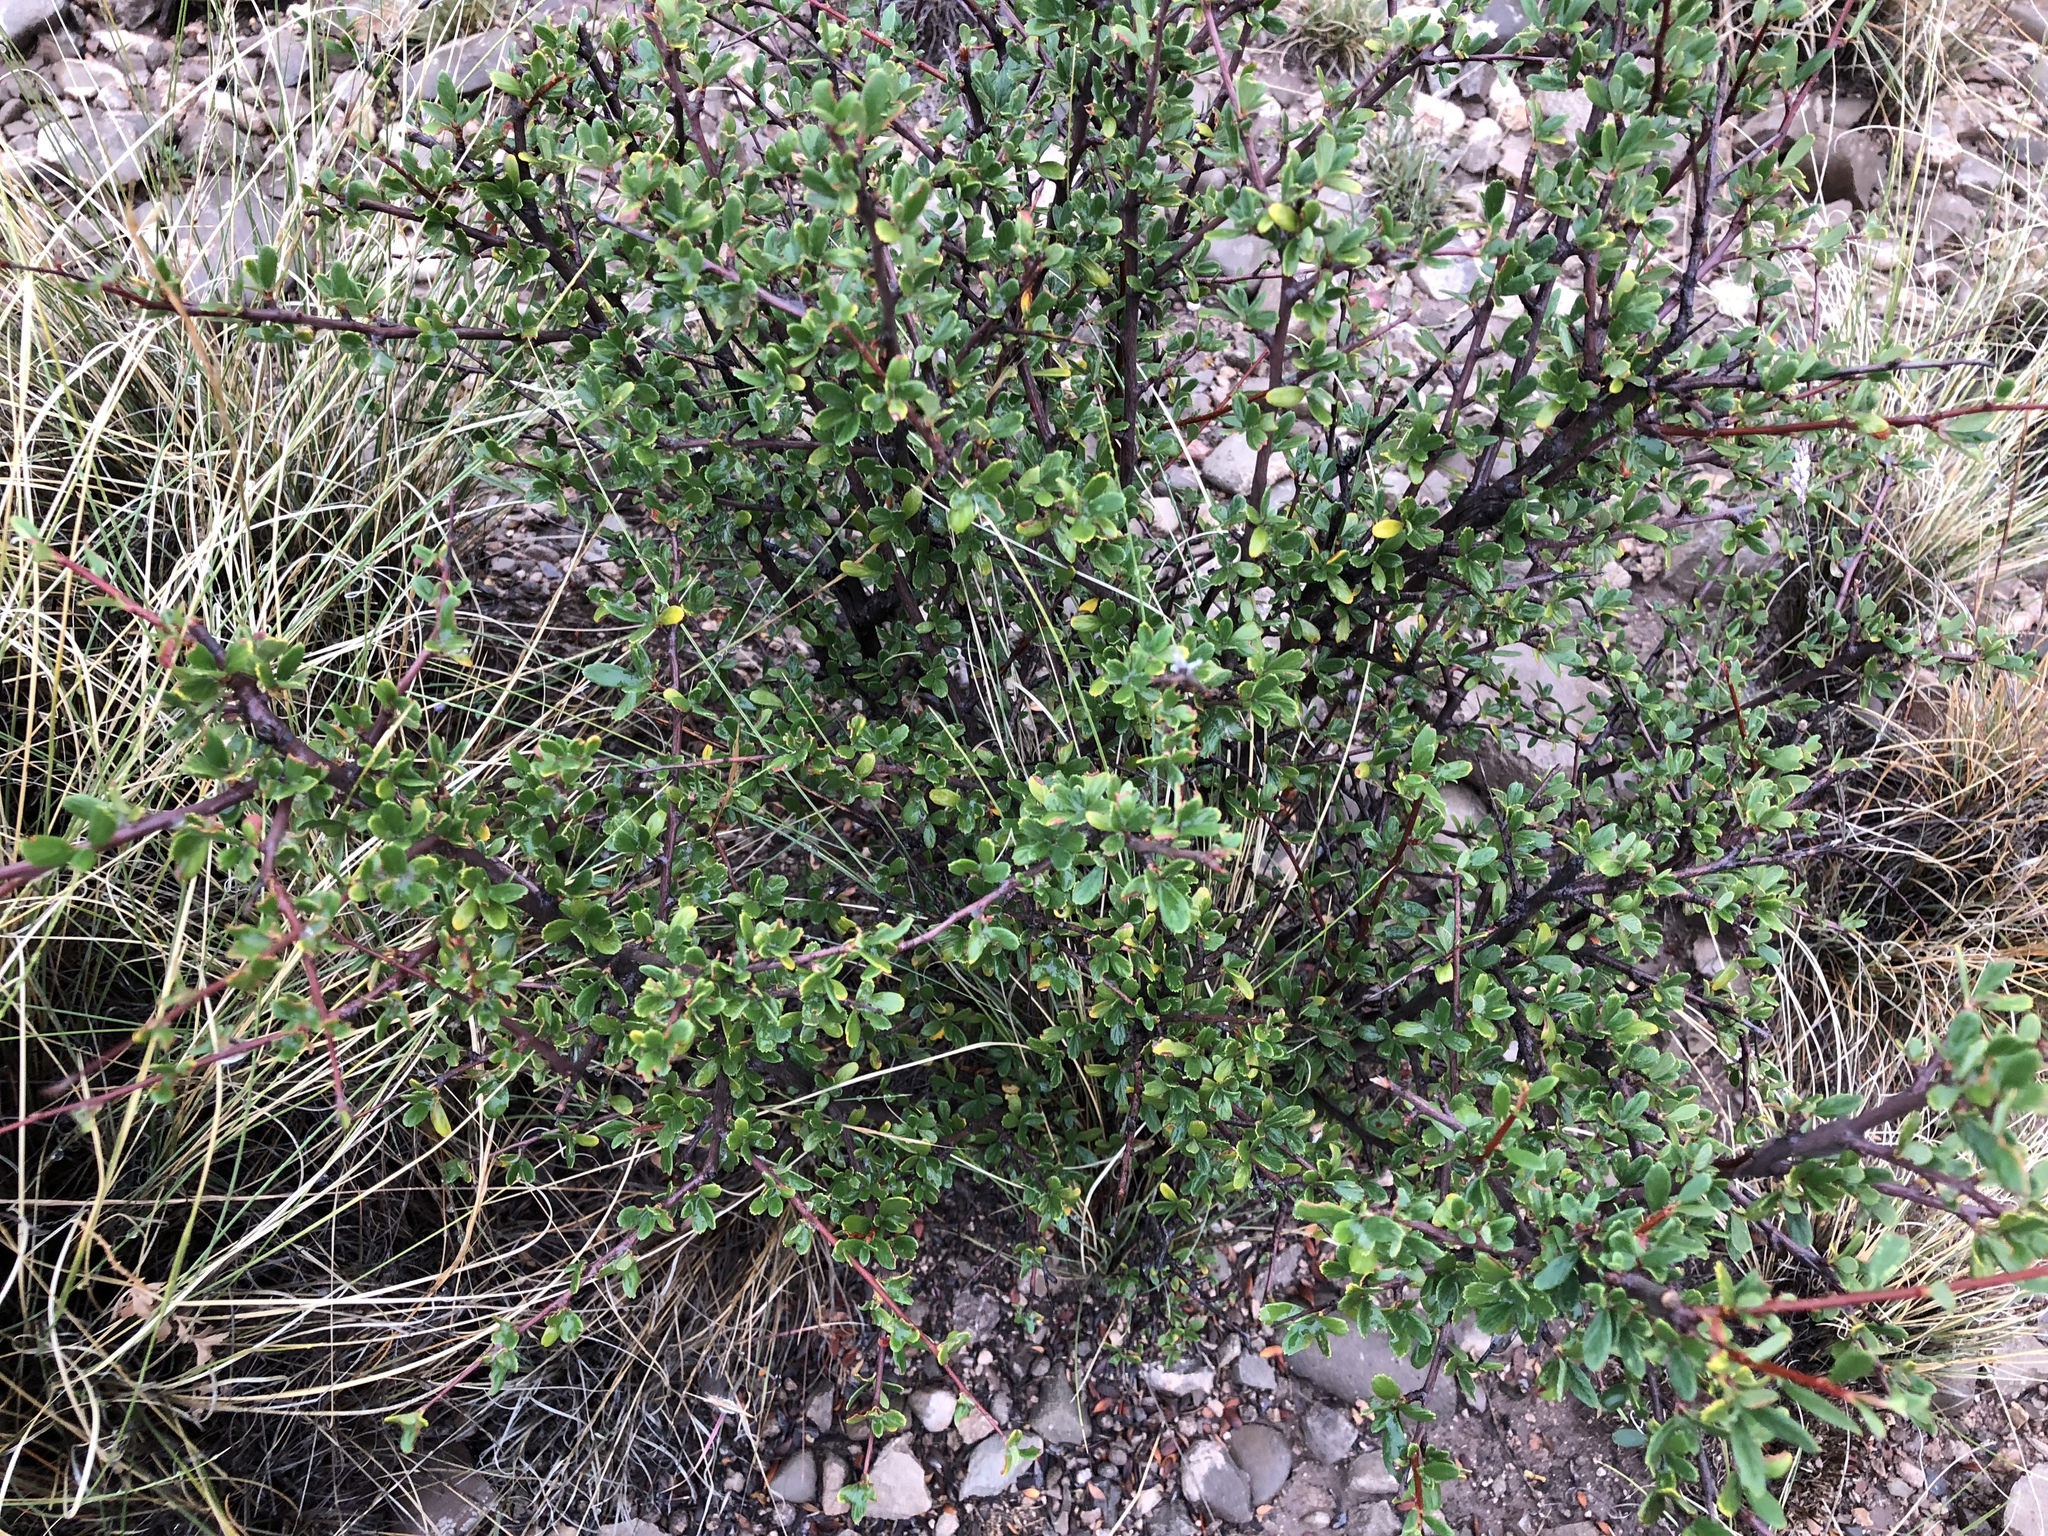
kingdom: Plantae
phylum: Tracheophyta
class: Magnoliopsida
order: Rosales
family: Rosaceae
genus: Cercocarpus
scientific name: Cercocarpus breviflorus
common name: Wright's mountain-mahogany
